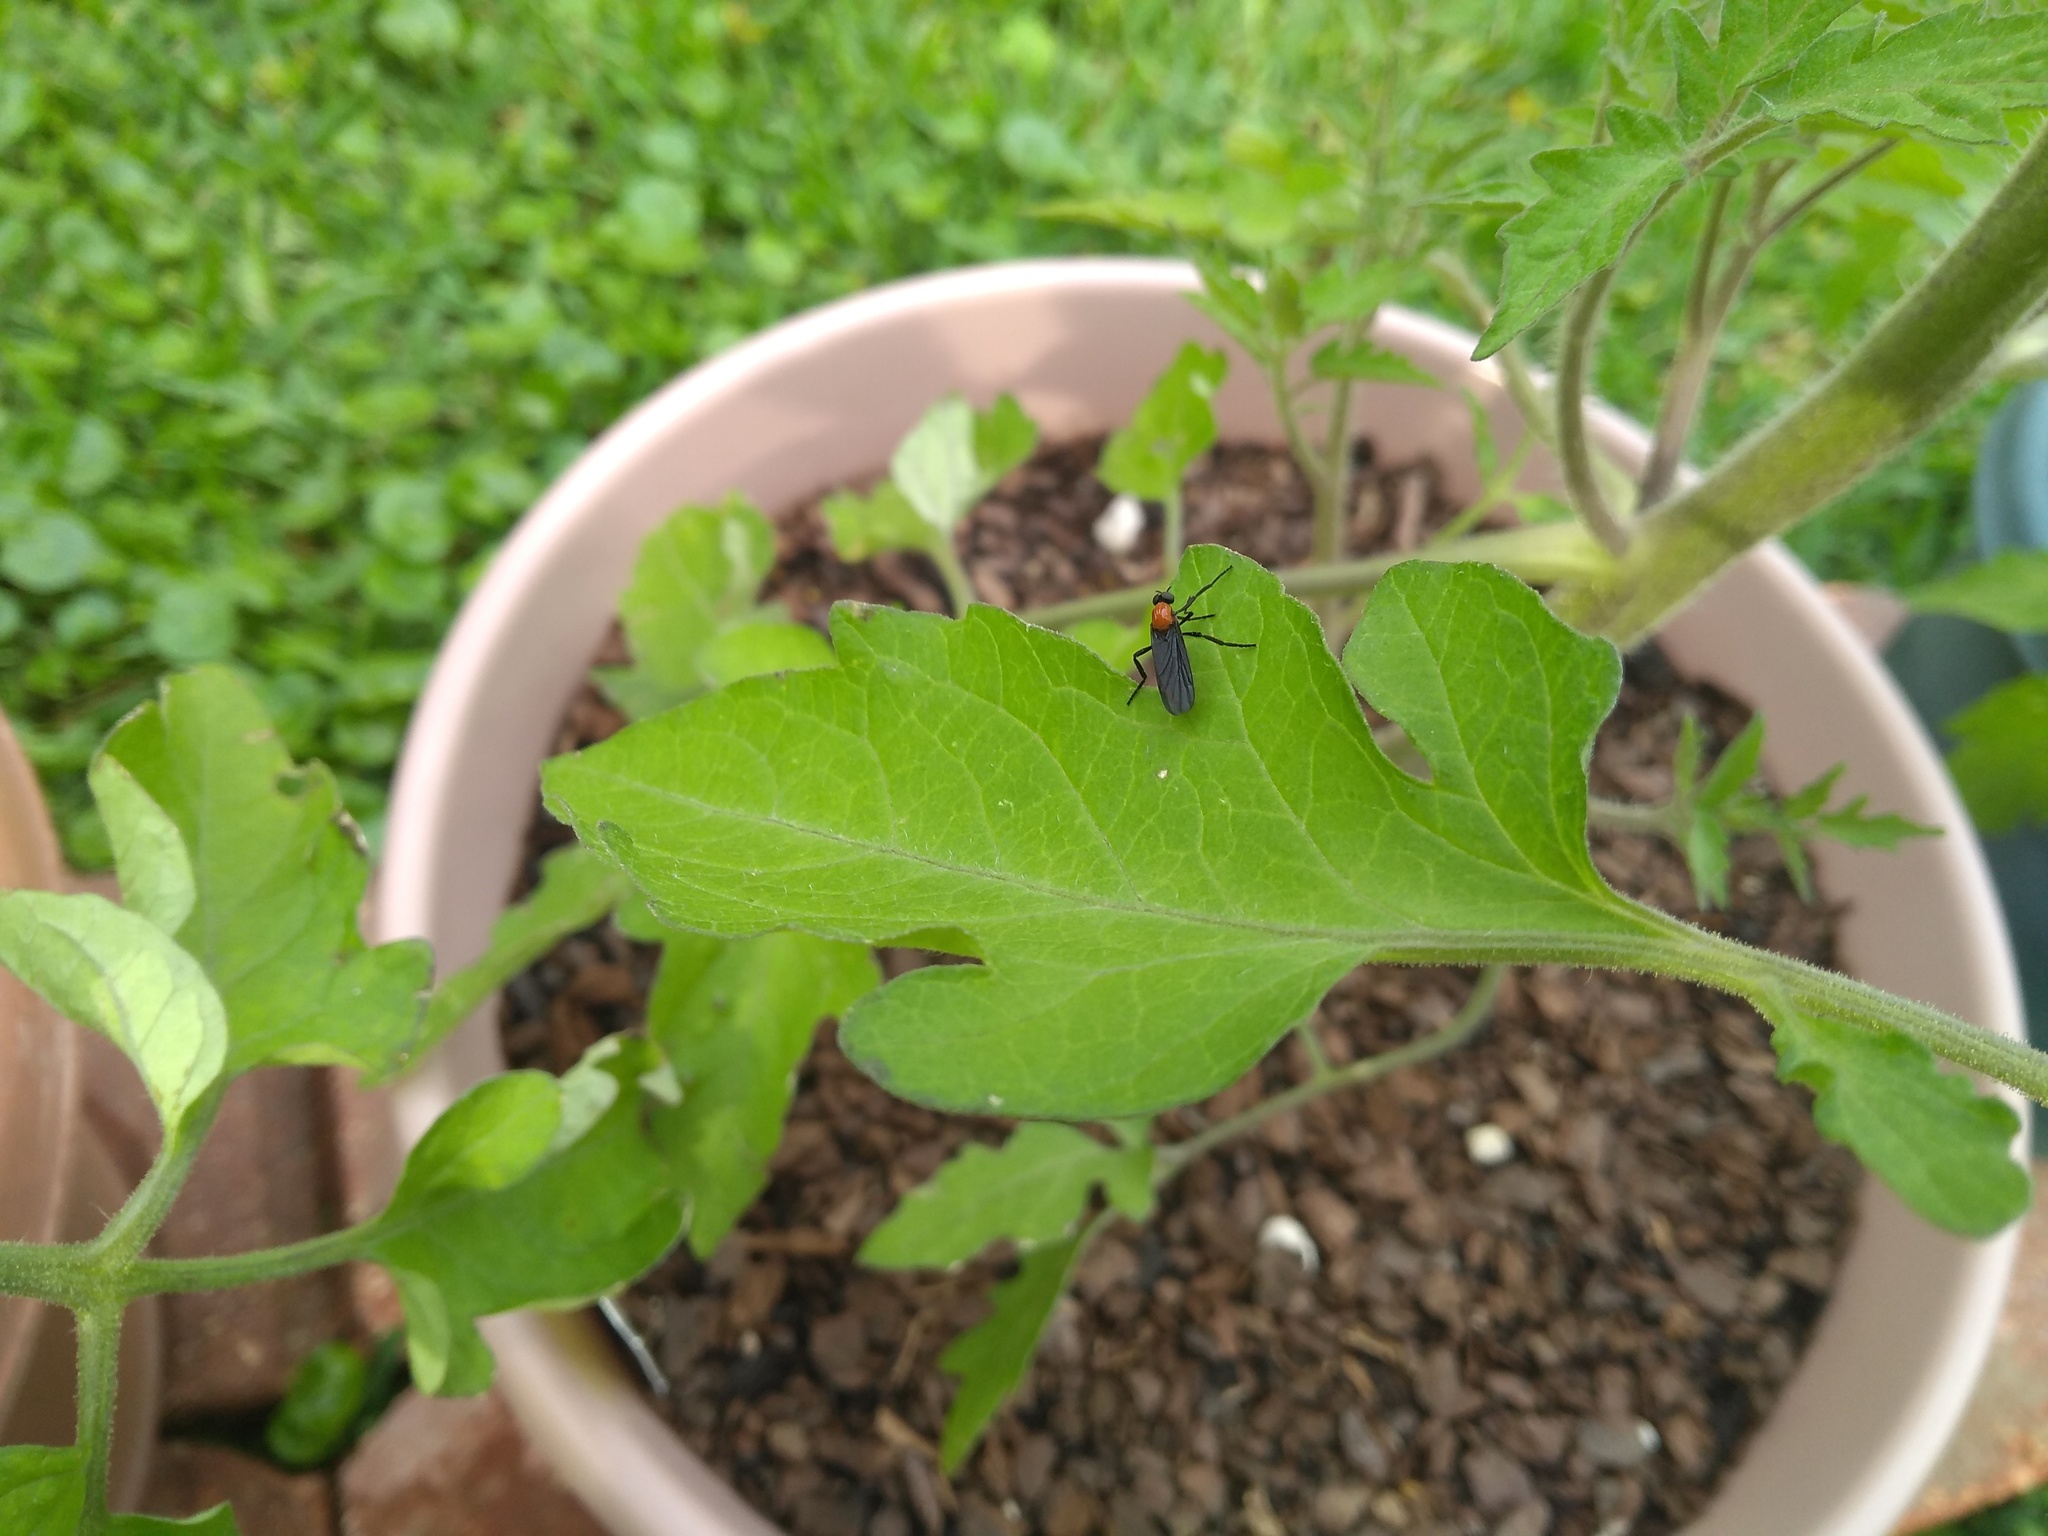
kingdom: Animalia
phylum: Arthropoda
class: Insecta
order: Diptera
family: Bibionidae
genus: Plecia
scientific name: Plecia nearctica
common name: March fly
